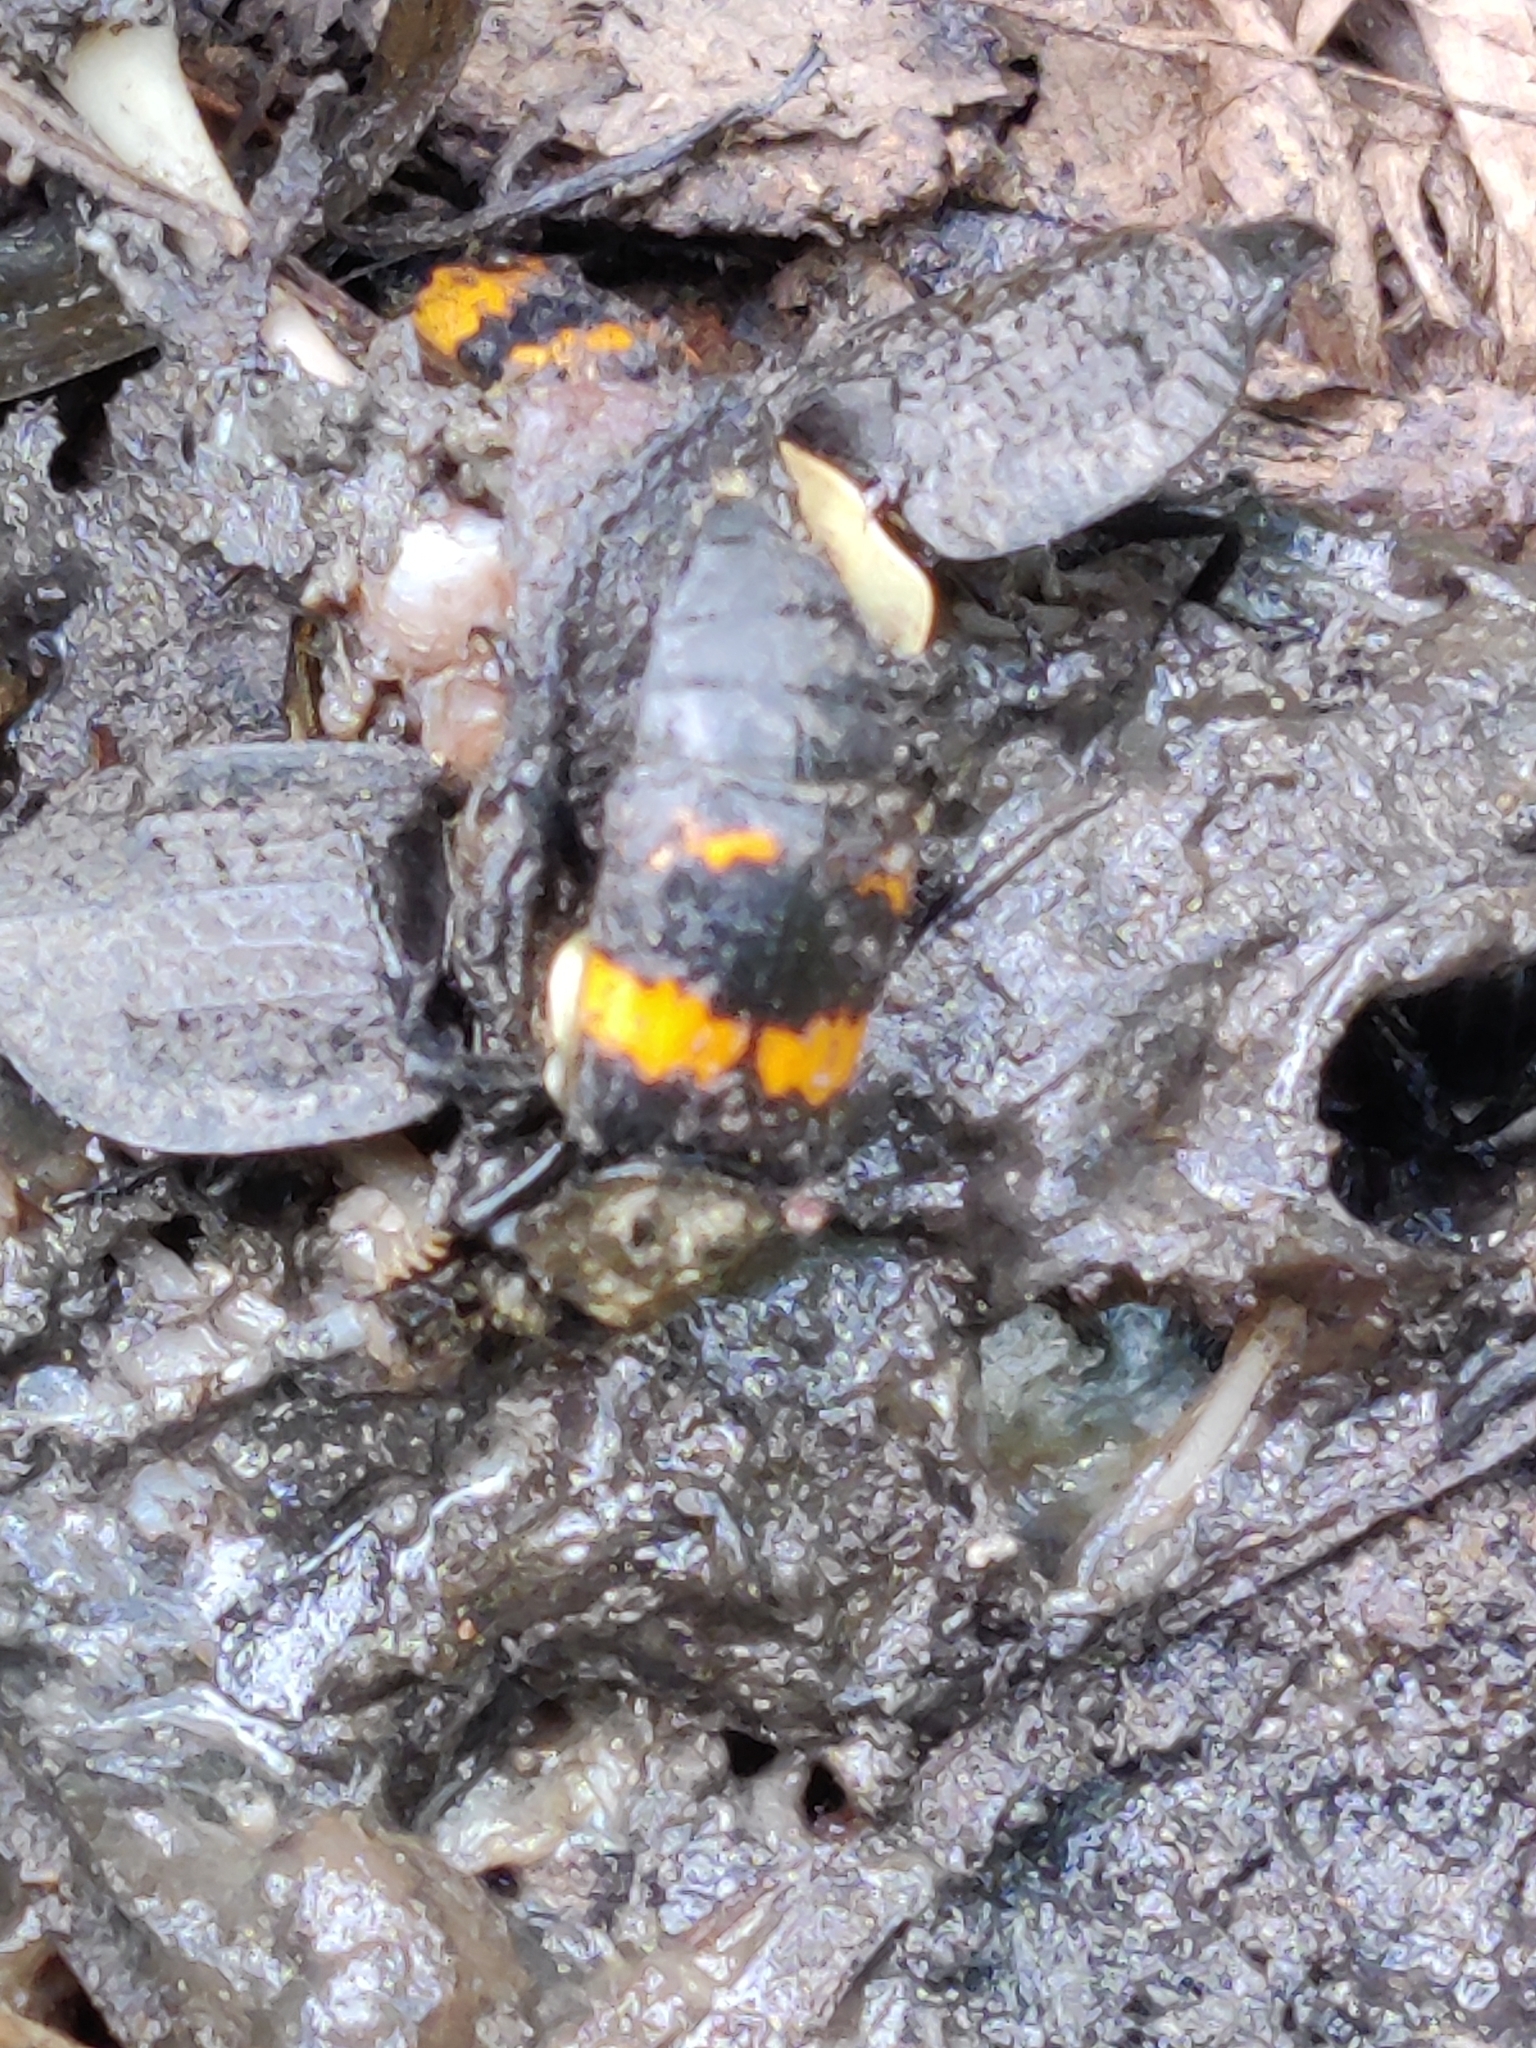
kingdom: Animalia
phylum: Arthropoda
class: Insecta
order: Coleoptera
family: Staphylinidae
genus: Nicrophorus
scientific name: Nicrophorus tomentosus
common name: Tomentose burying beetle
